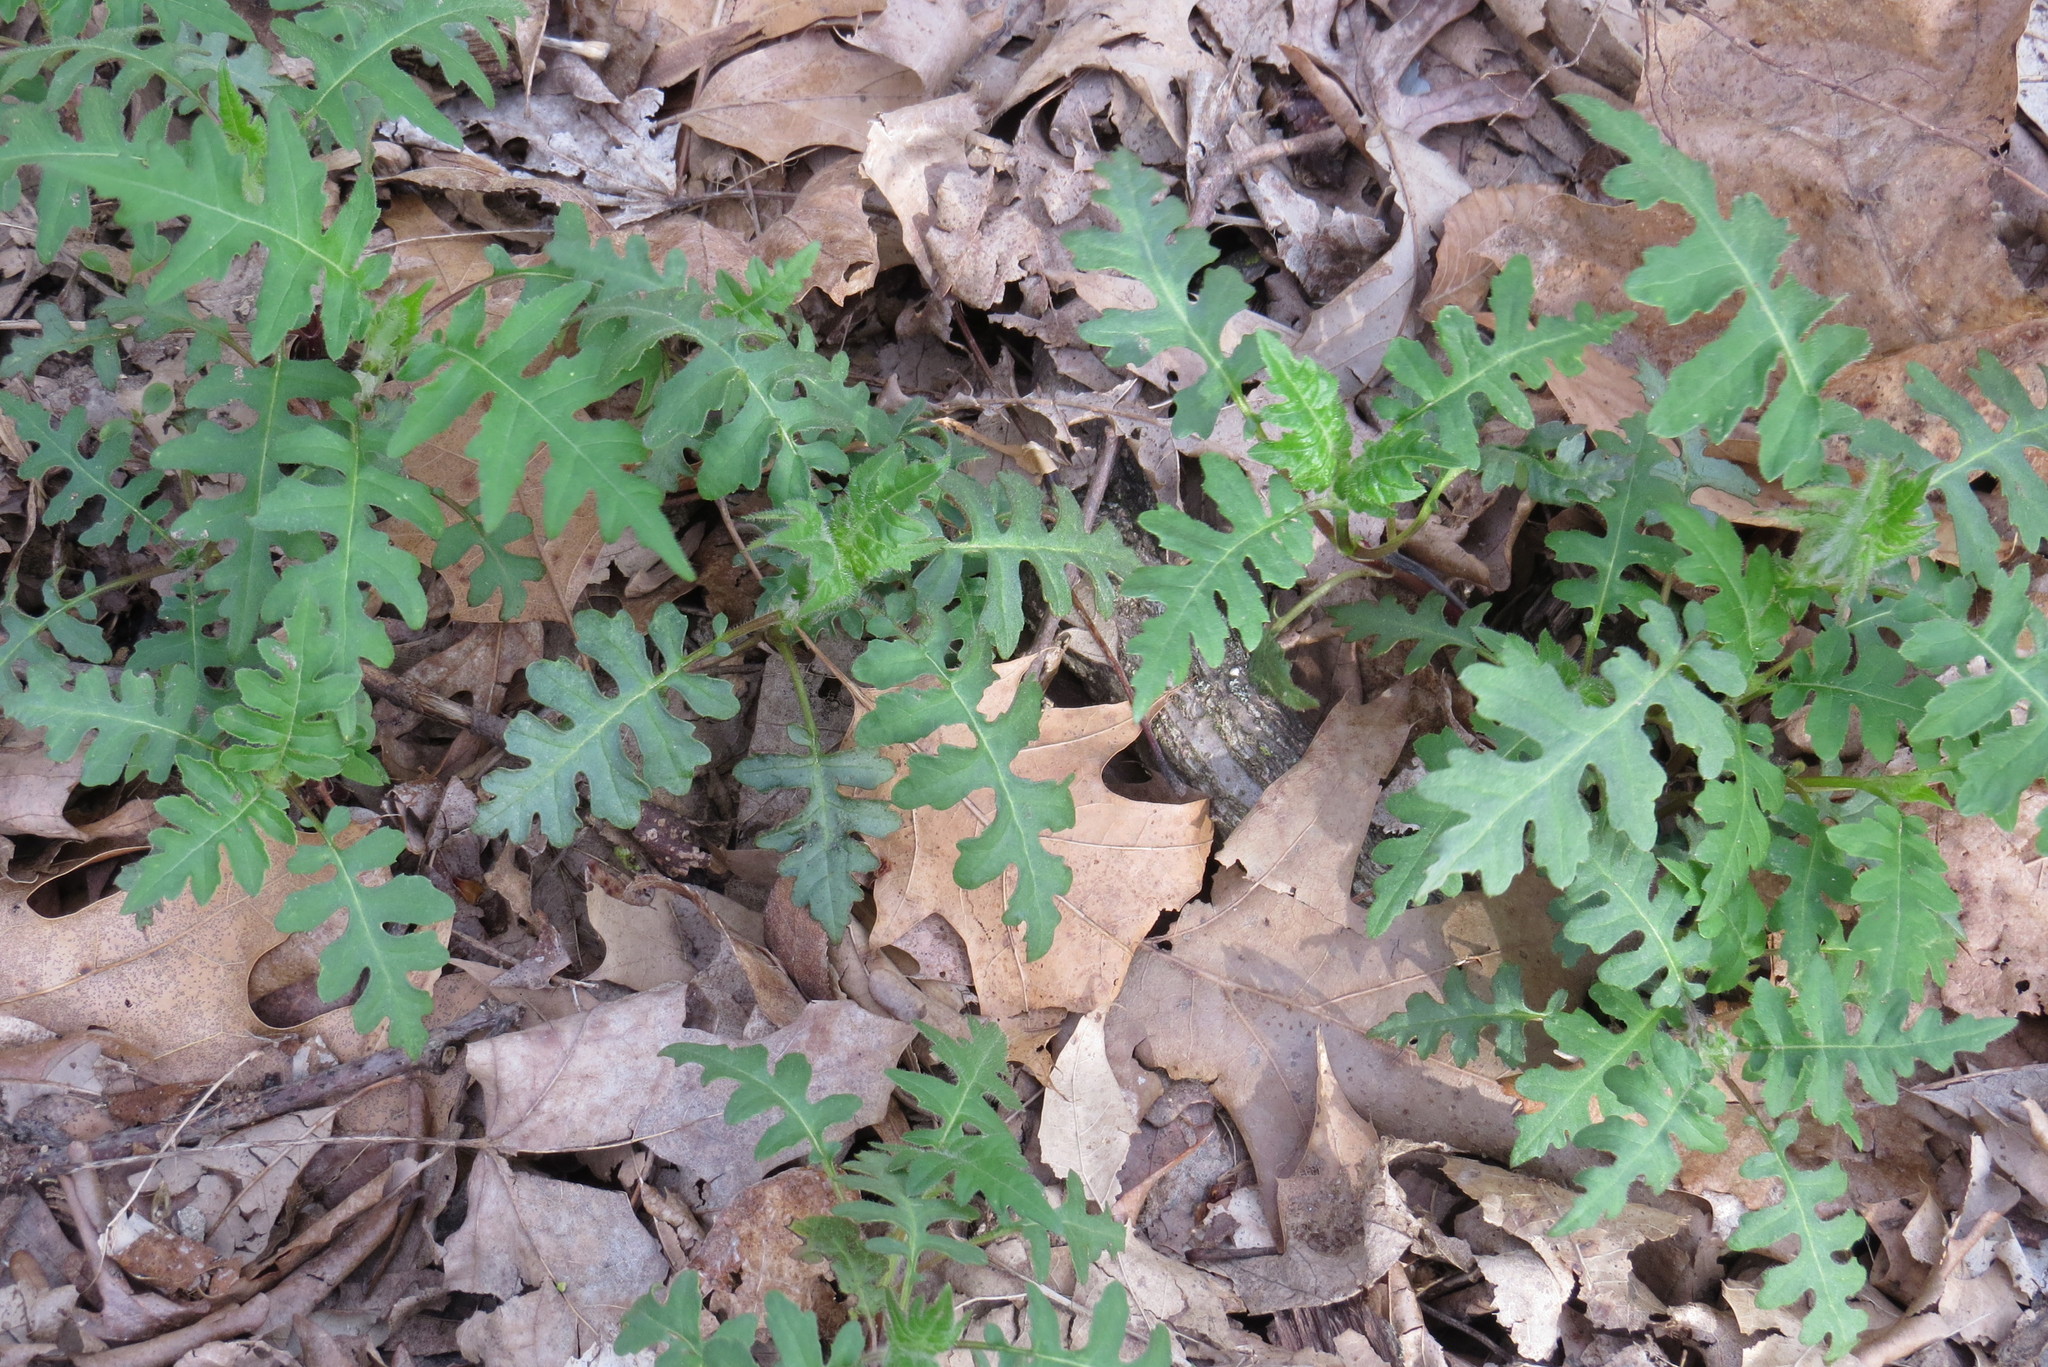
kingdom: Plantae
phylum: Tracheophyta
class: Magnoliopsida
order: Asterales
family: Asteraceae
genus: Polymnia
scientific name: Polymnia canadensis
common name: Pale-flowered leafcup
